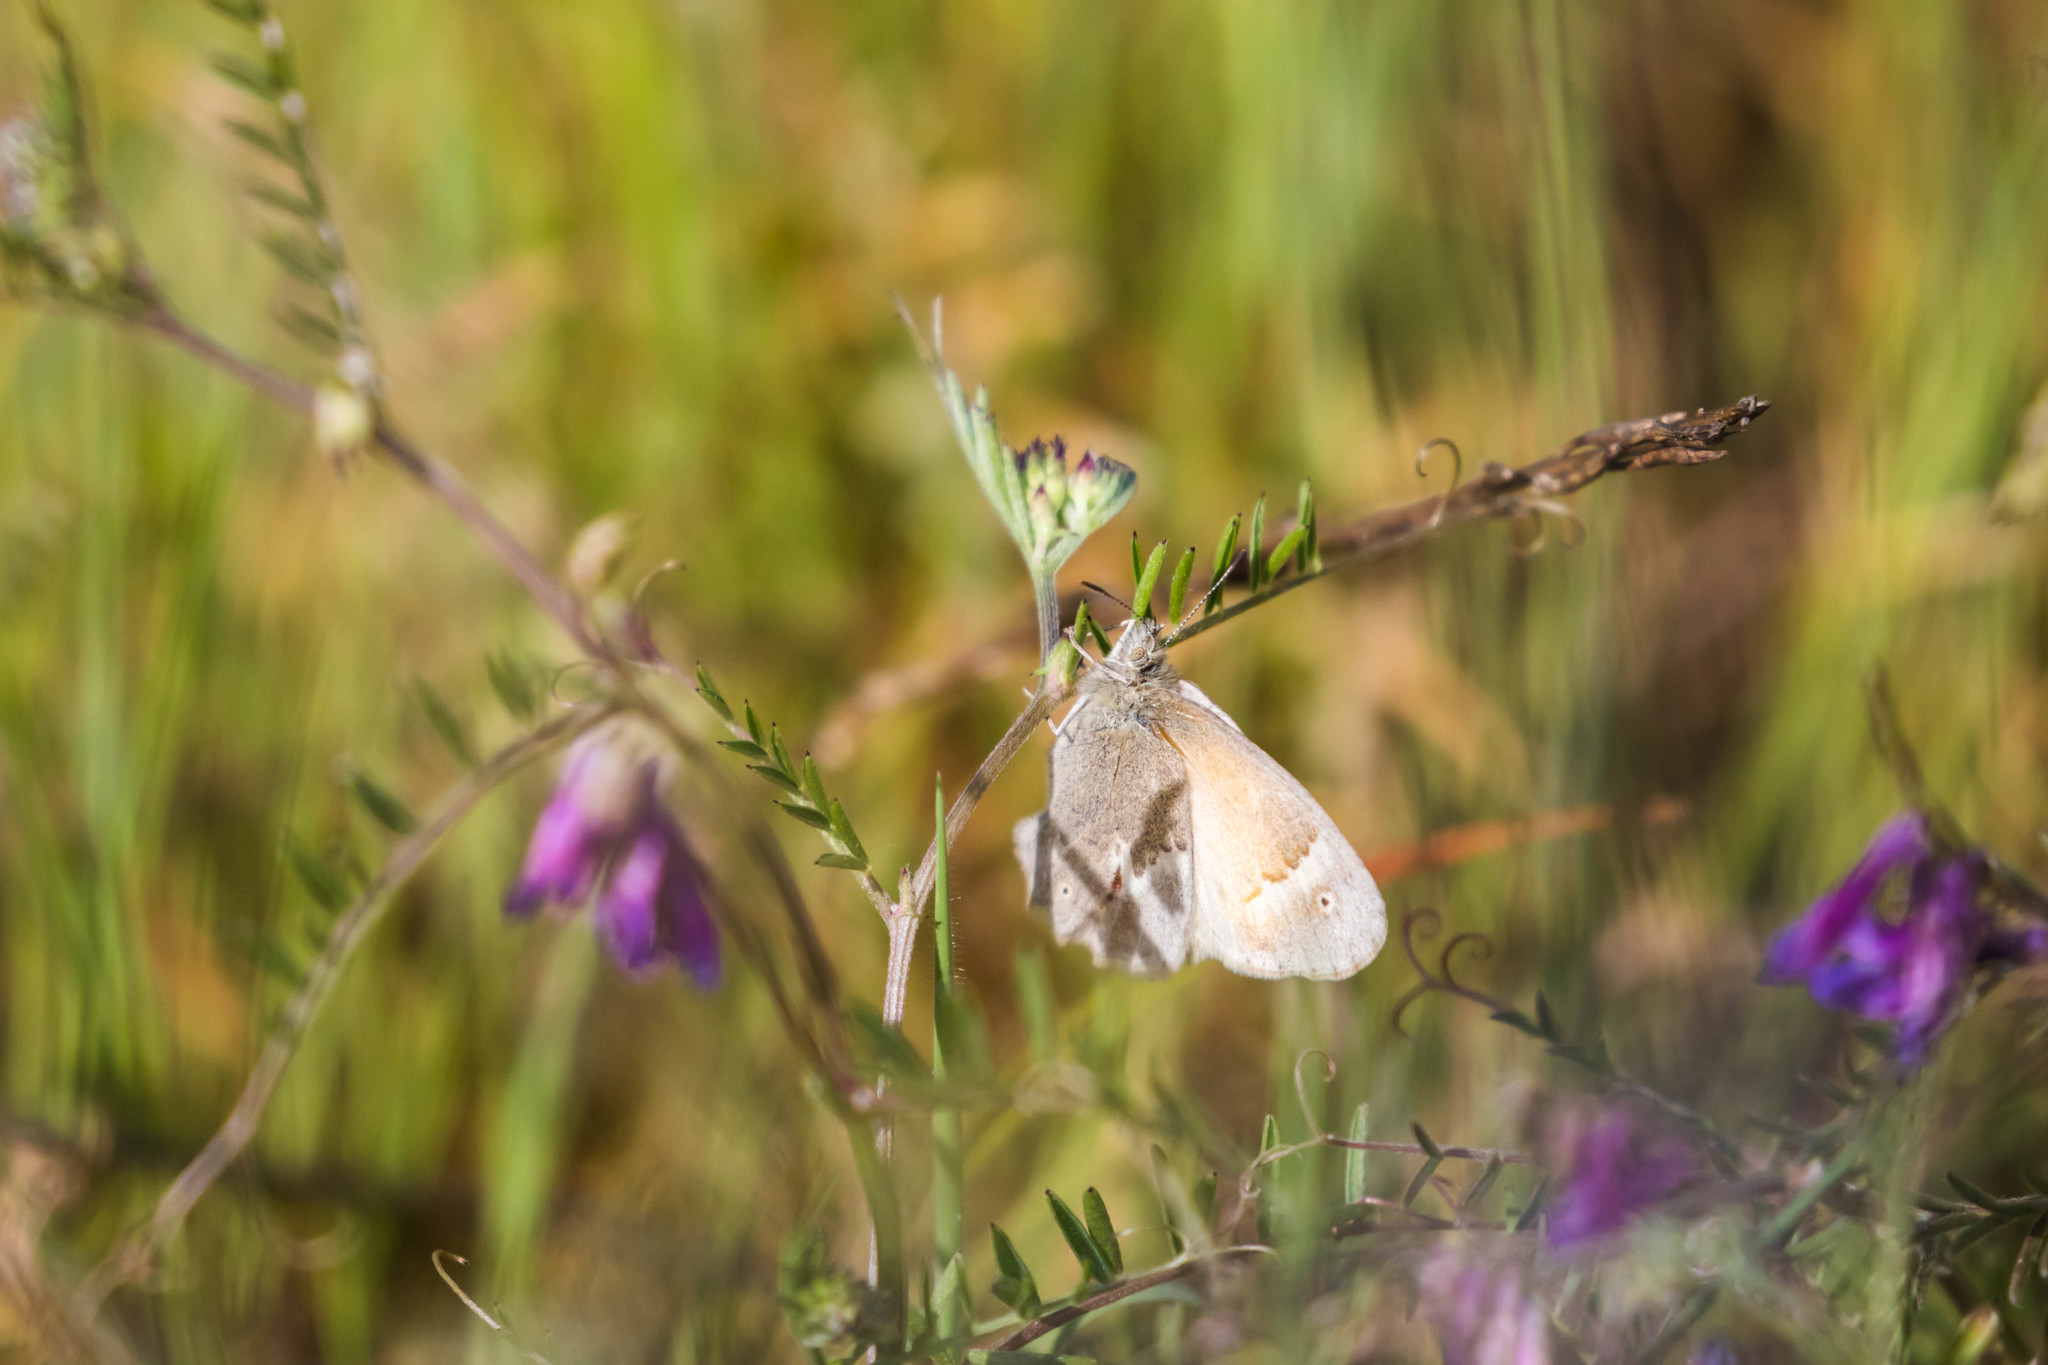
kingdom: Animalia
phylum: Arthropoda
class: Insecta
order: Lepidoptera
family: Nymphalidae
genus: Coenonympha
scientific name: Coenonympha california
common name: Common ringlet
